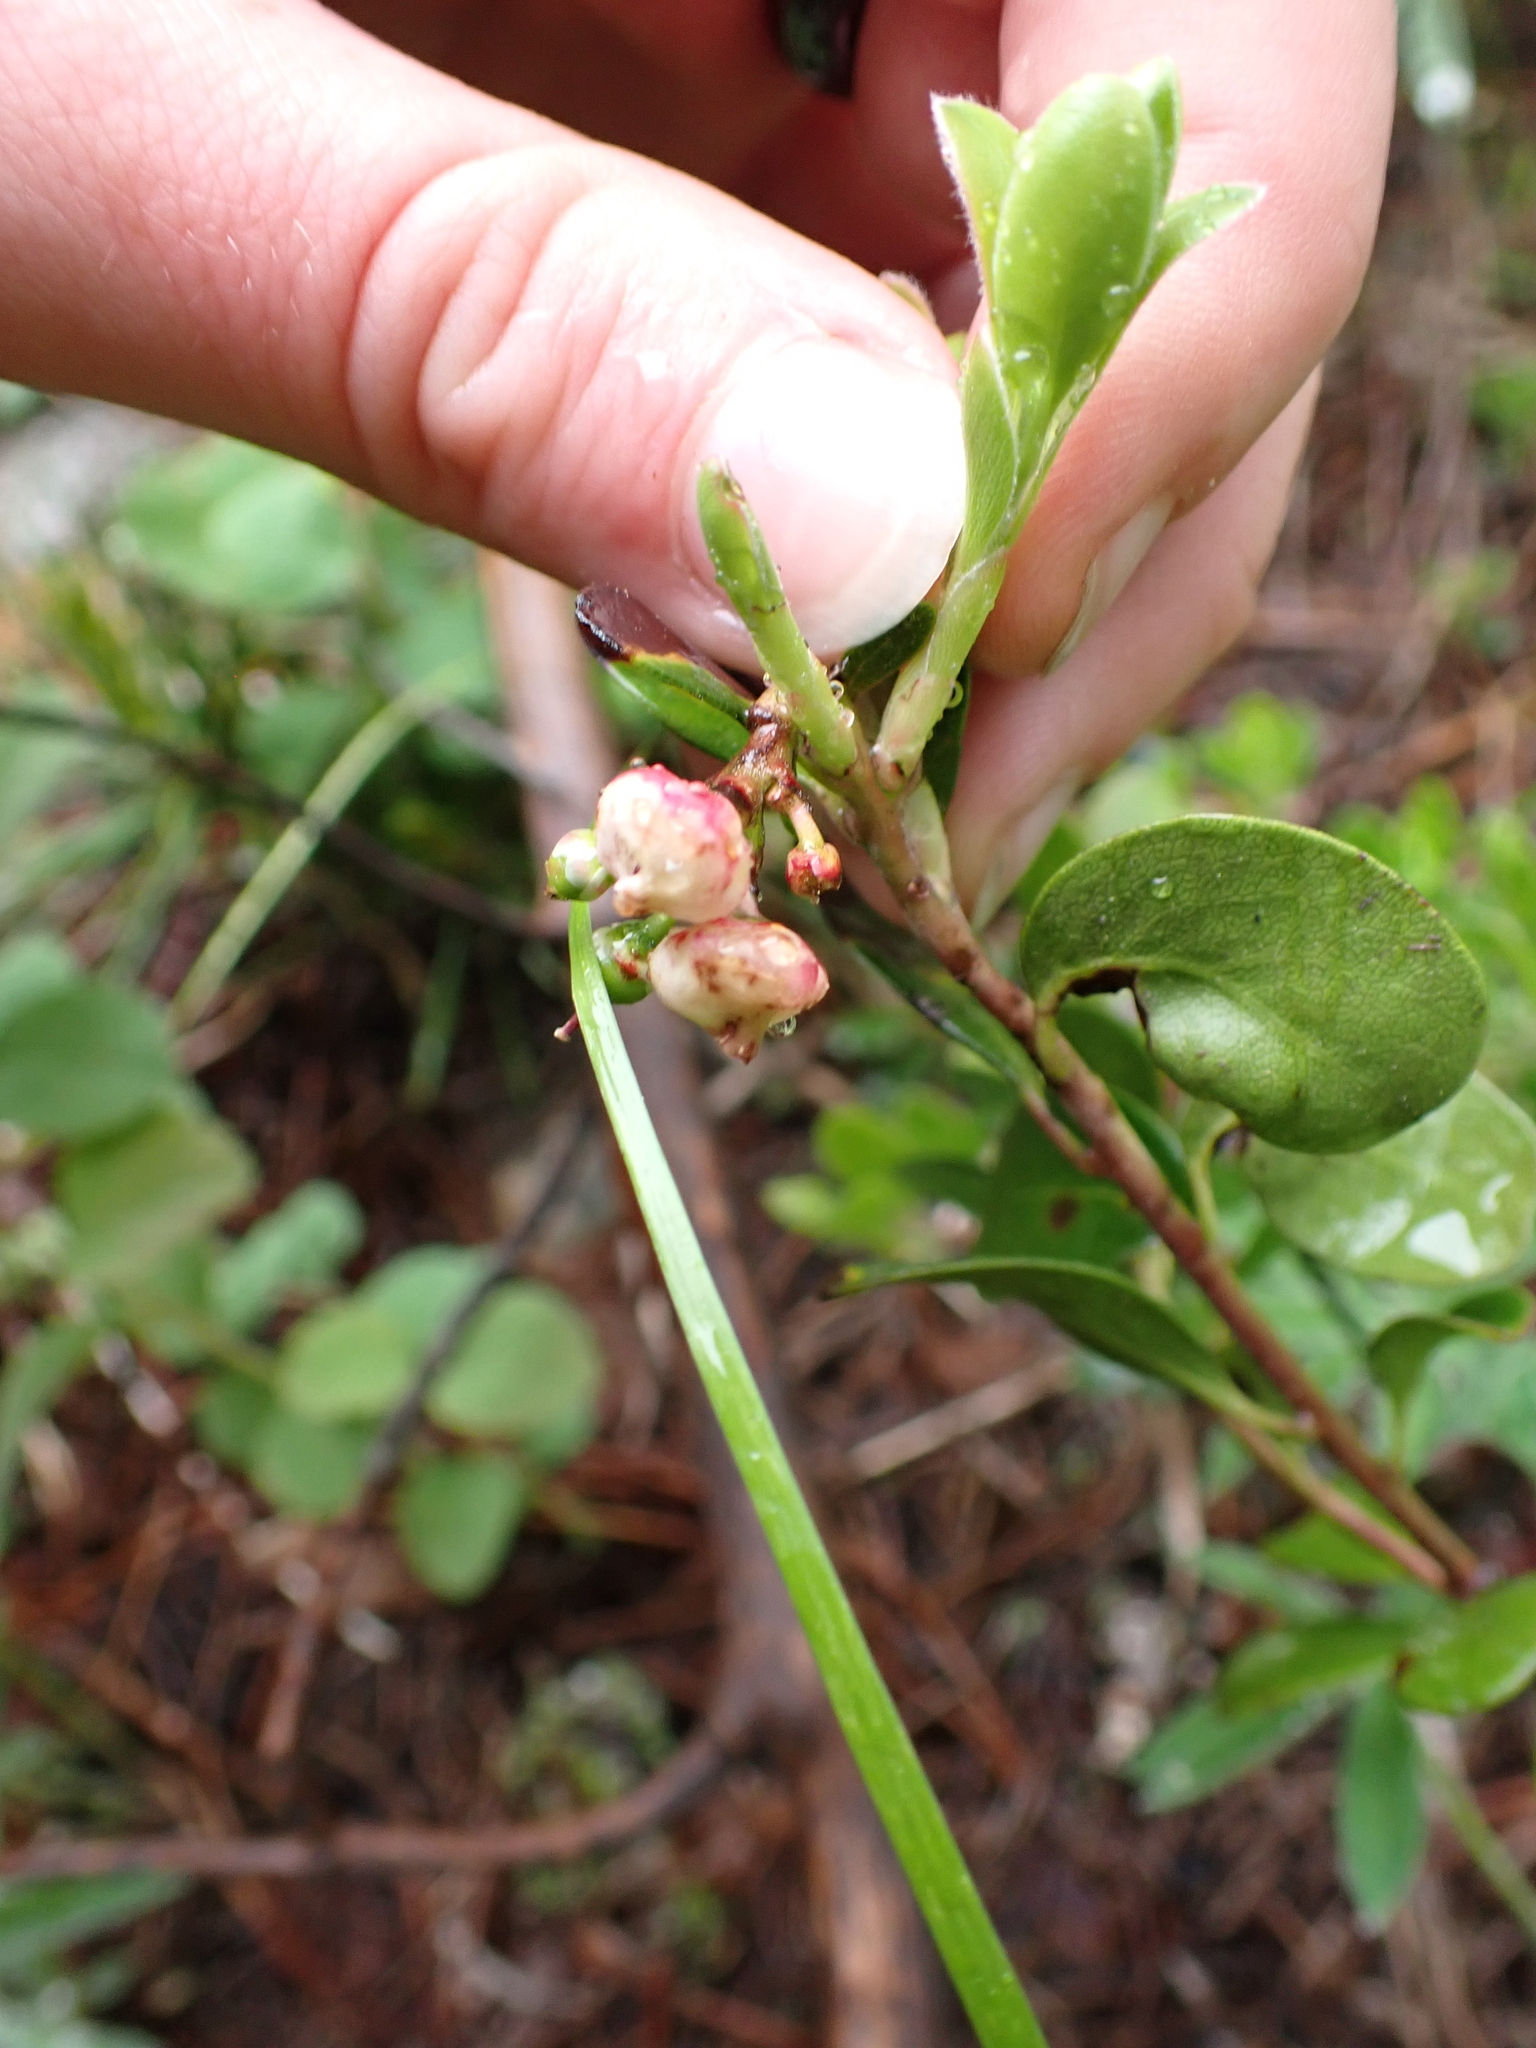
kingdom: Plantae
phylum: Tracheophyta
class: Magnoliopsida
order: Ericales
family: Ericaceae
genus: Arctostaphylos
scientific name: Arctostaphylos uva-ursi
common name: Bearberry
